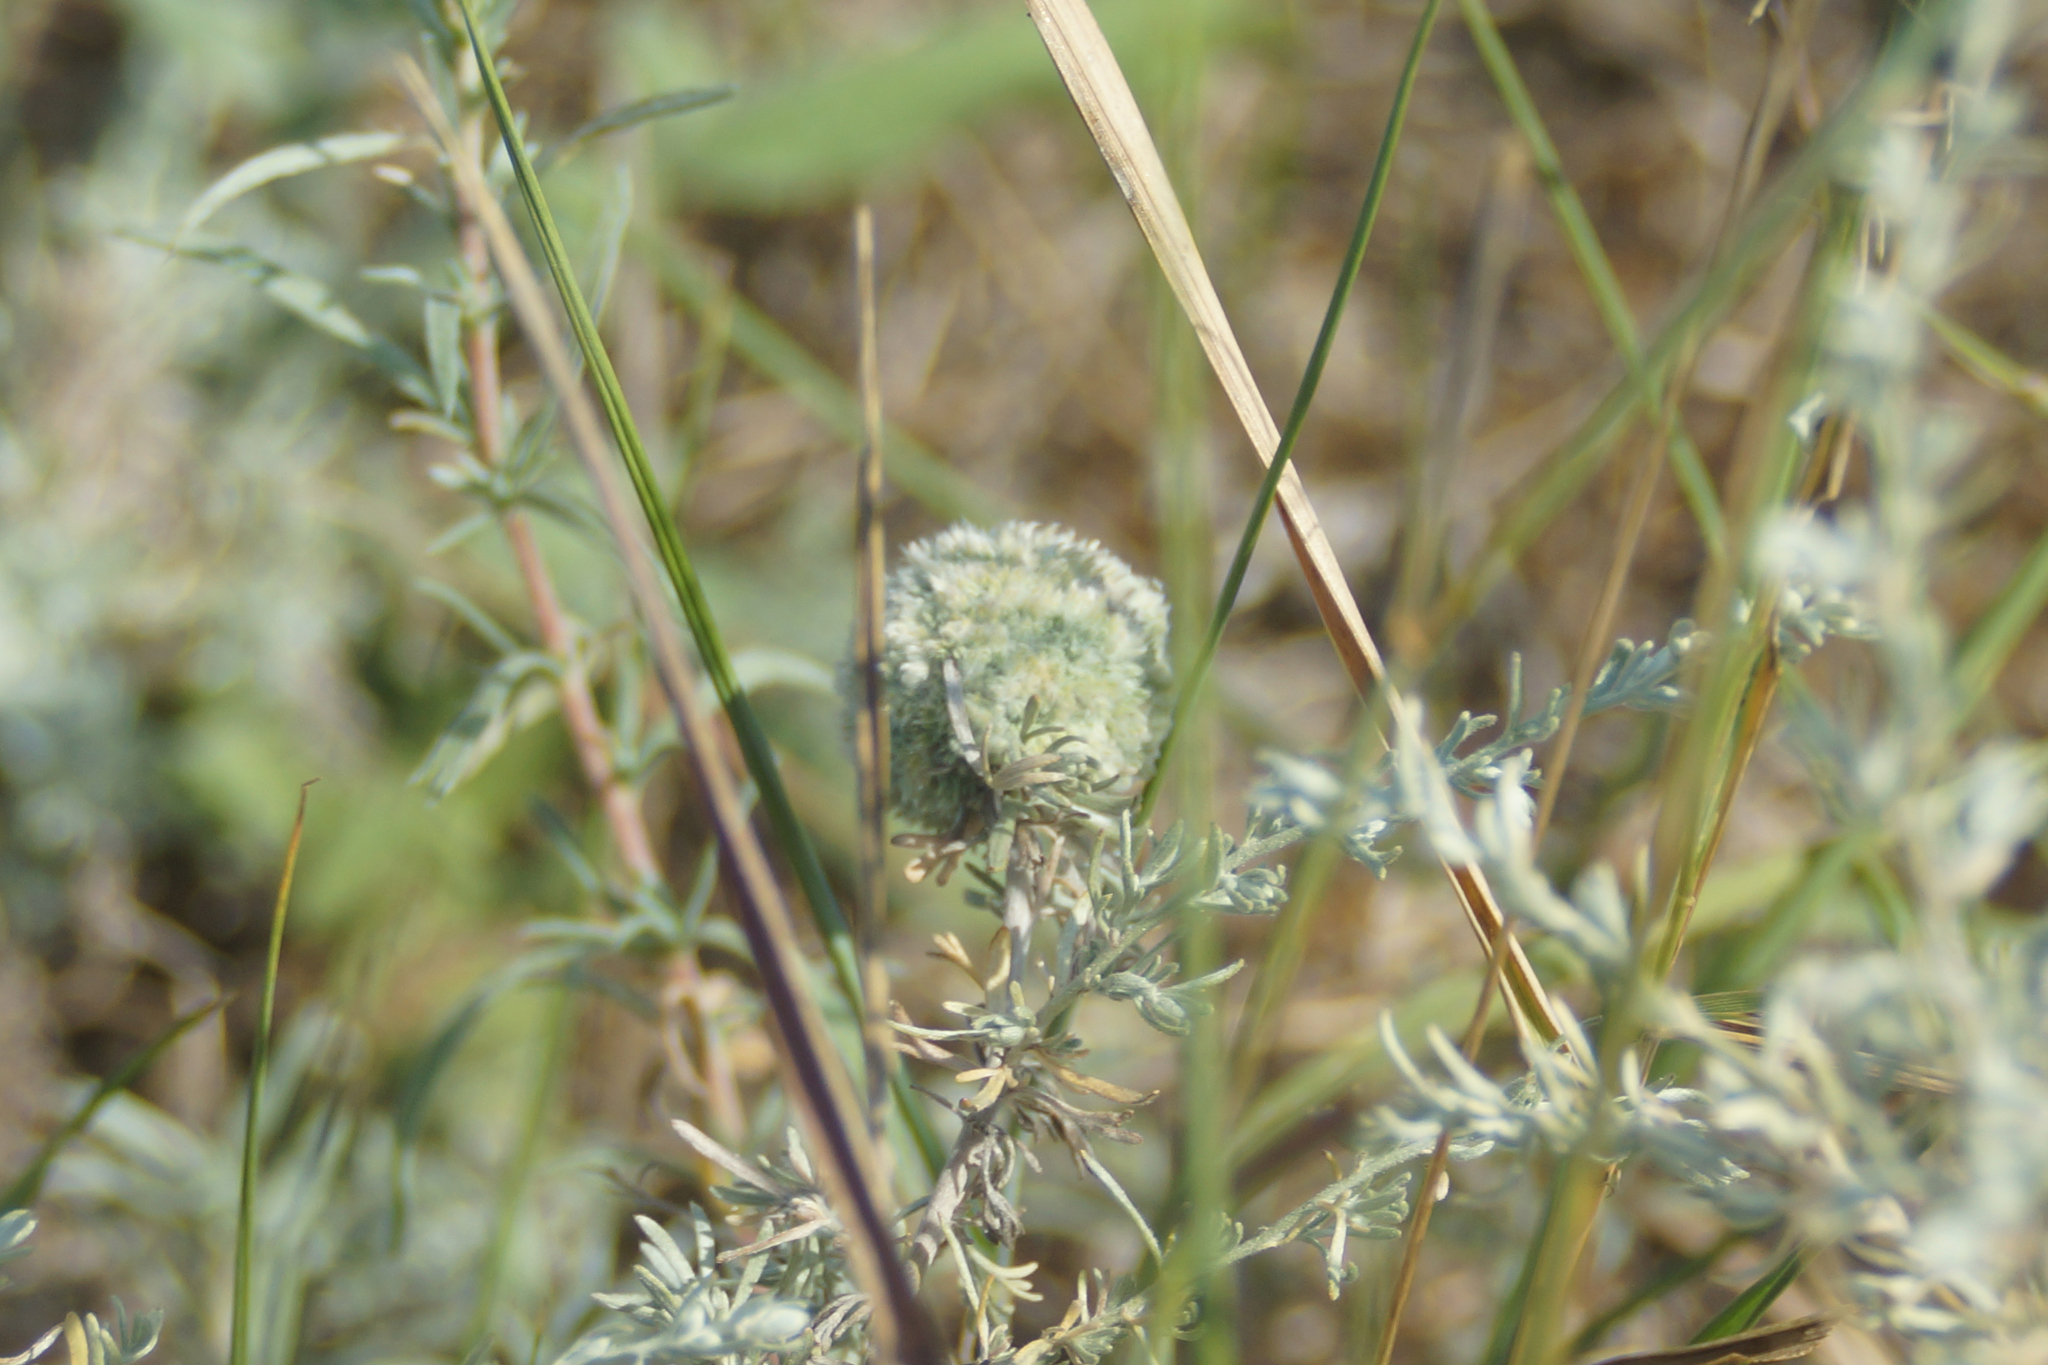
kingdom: Animalia
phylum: Arthropoda
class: Insecta
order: Diptera
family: Cecidomyiidae
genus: Rhopalomyia
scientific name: Rhopalomyia artemisiae
